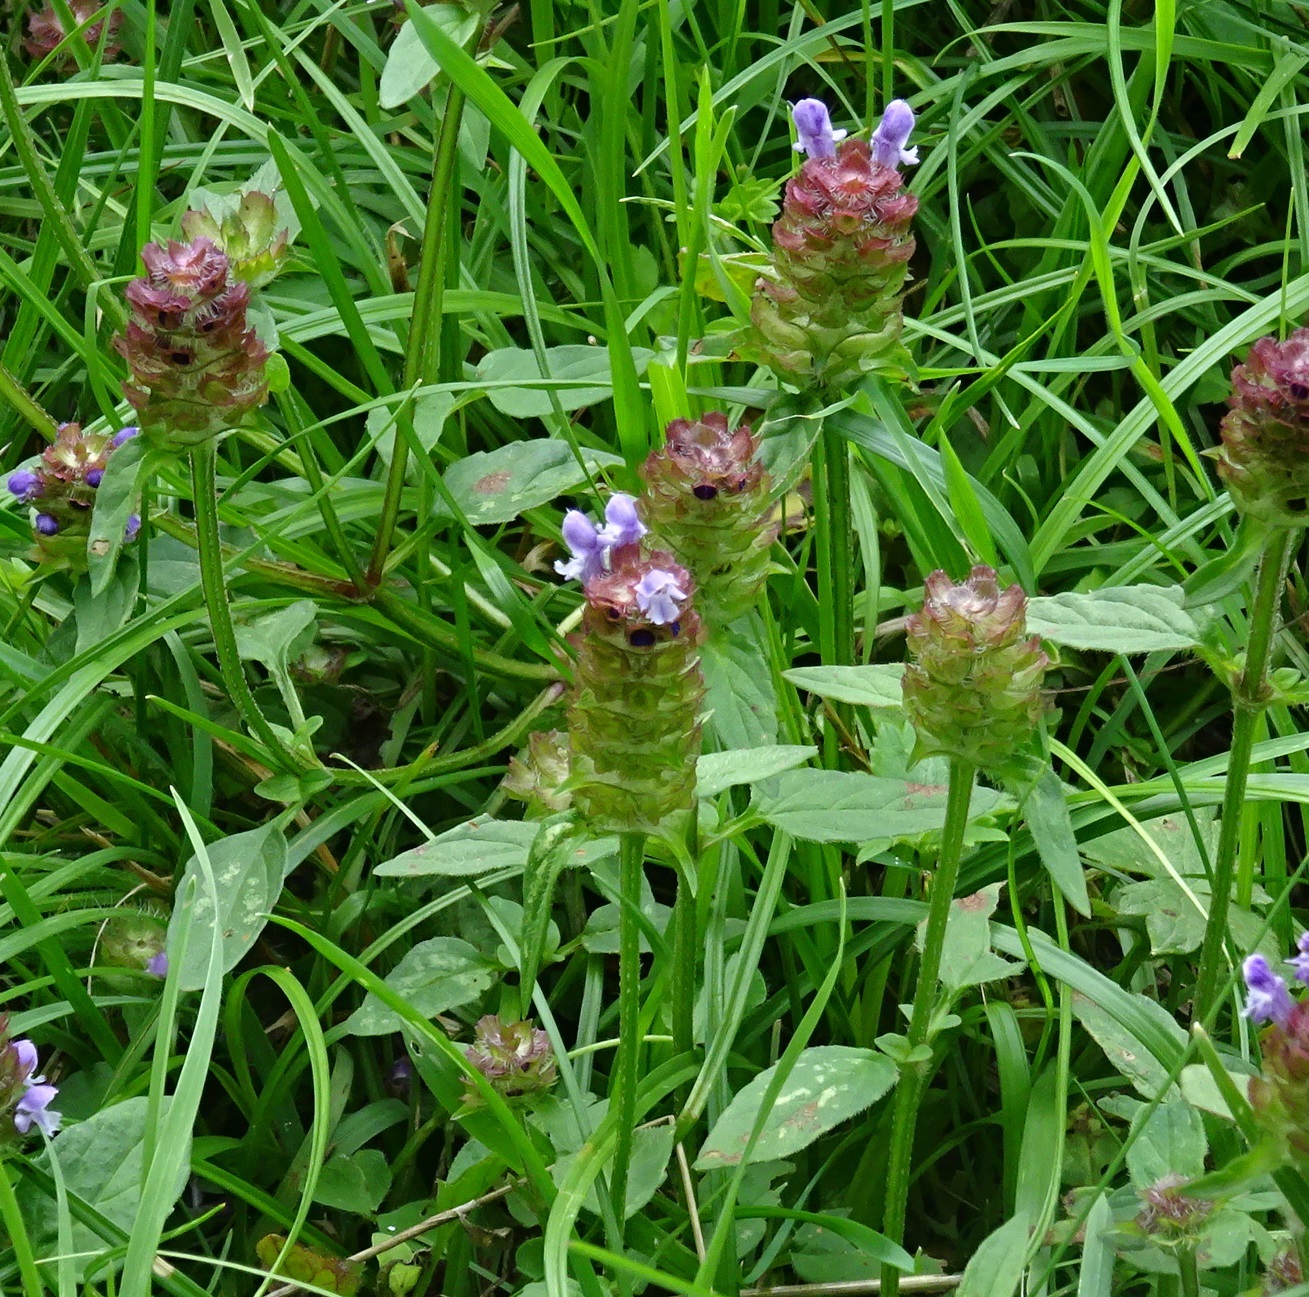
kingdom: Plantae
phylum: Tracheophyta
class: Magnoliopsida
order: Lamiales
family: Lamiaceae
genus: Prunella
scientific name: Prunella vulgaris
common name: Heal-all
